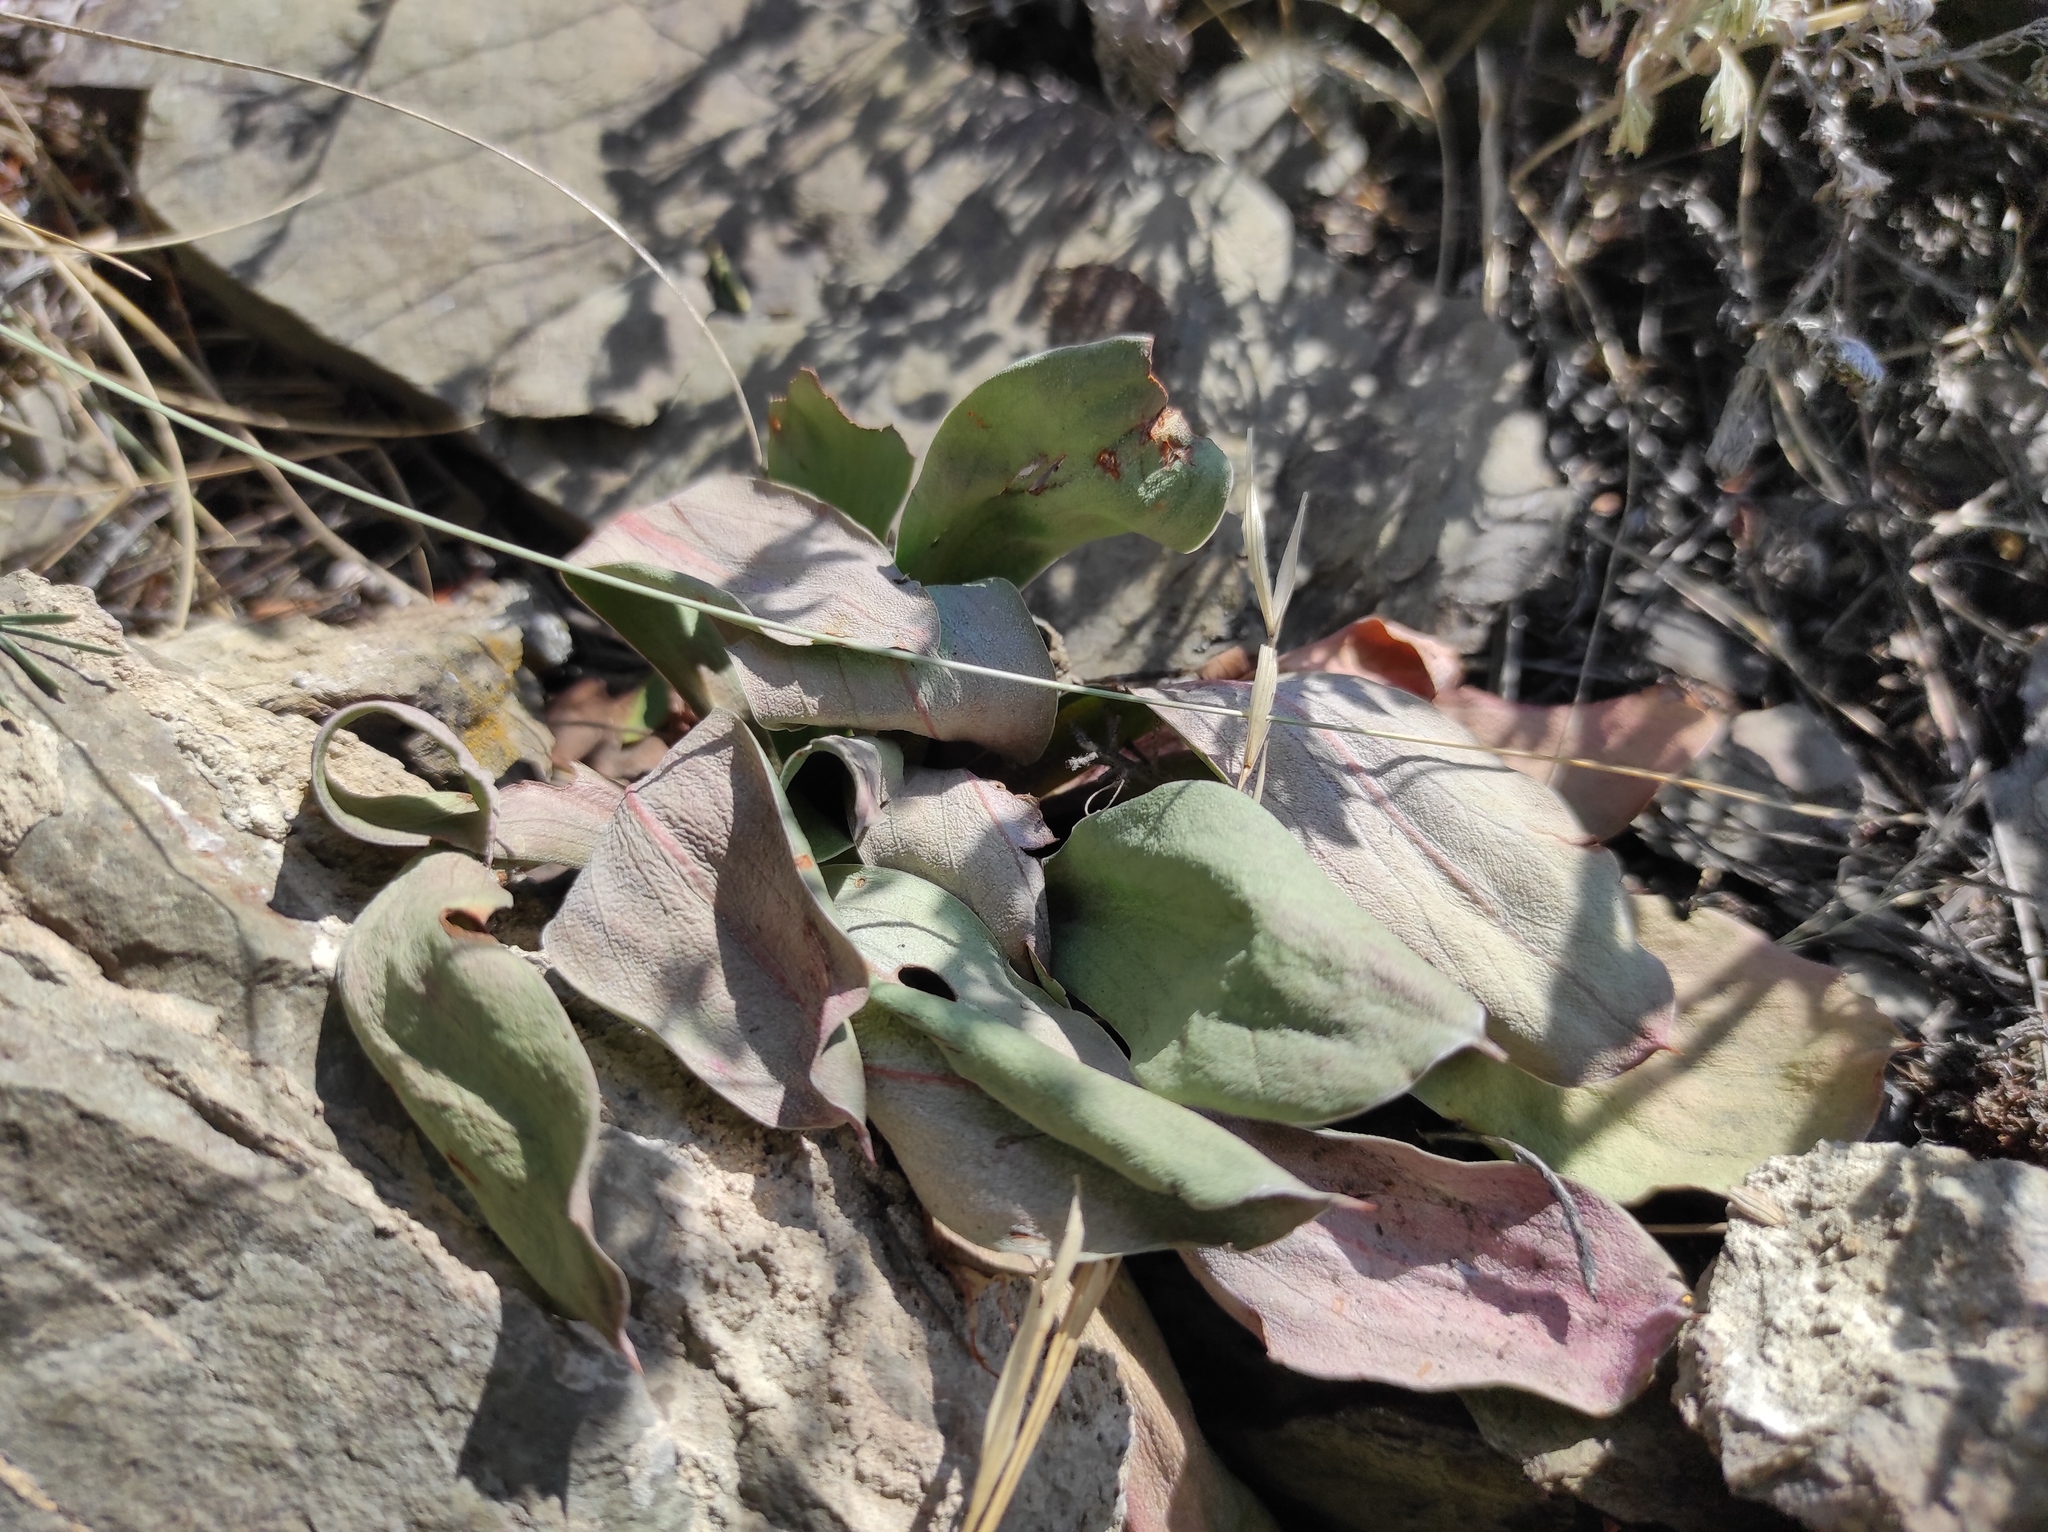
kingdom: Plantae
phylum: Tracheophyta
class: Magnoliopsida
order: Caryophyllales
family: Plumbaginaceae
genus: Goniolimon
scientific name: Goniolimon speciosum
